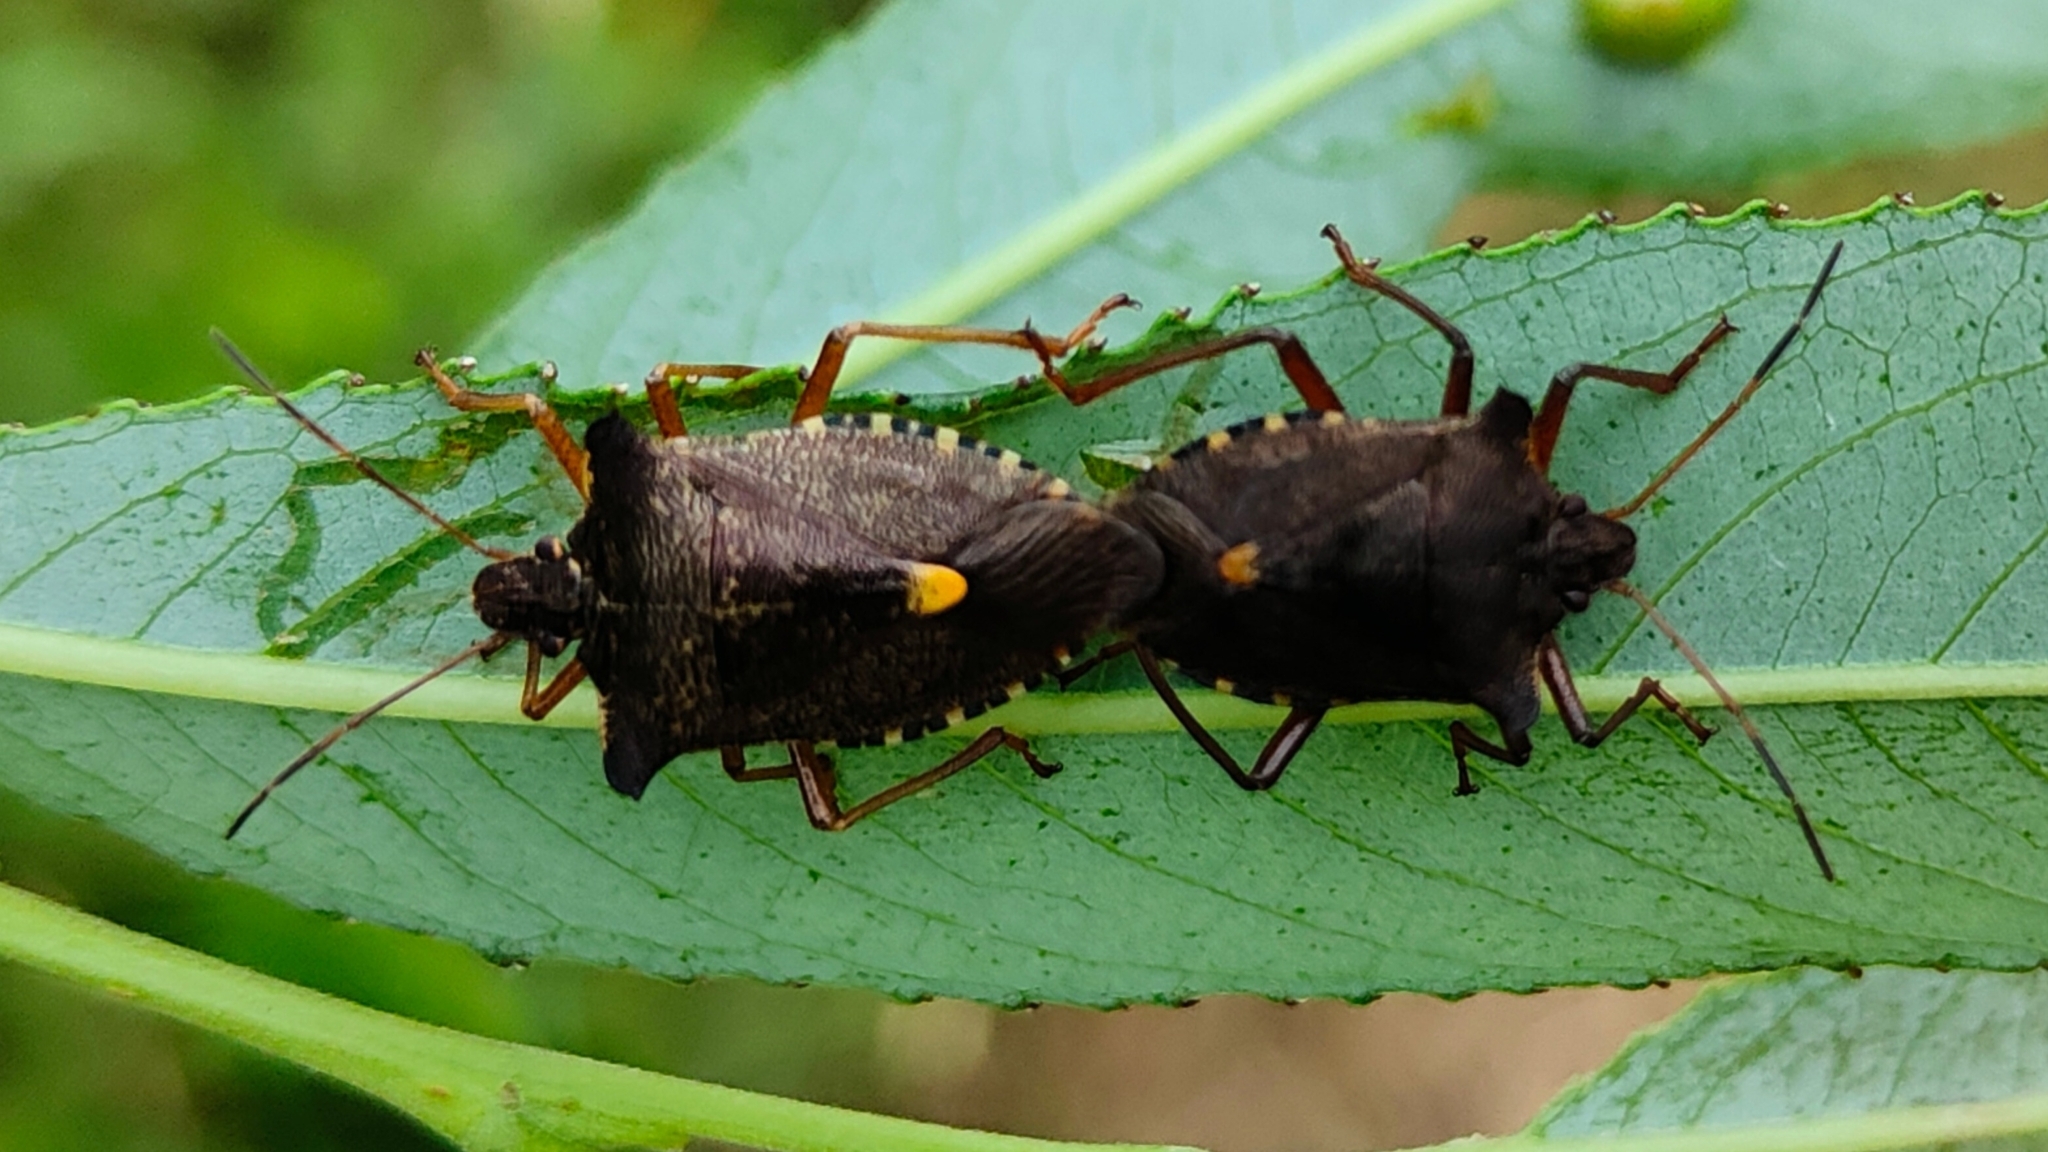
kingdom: Animalia
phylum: Arthropoda
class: Insecta
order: Hemiptera
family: Pentatomidae
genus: Pentatoma
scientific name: Pentatoma rufipes
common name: Forest bug
